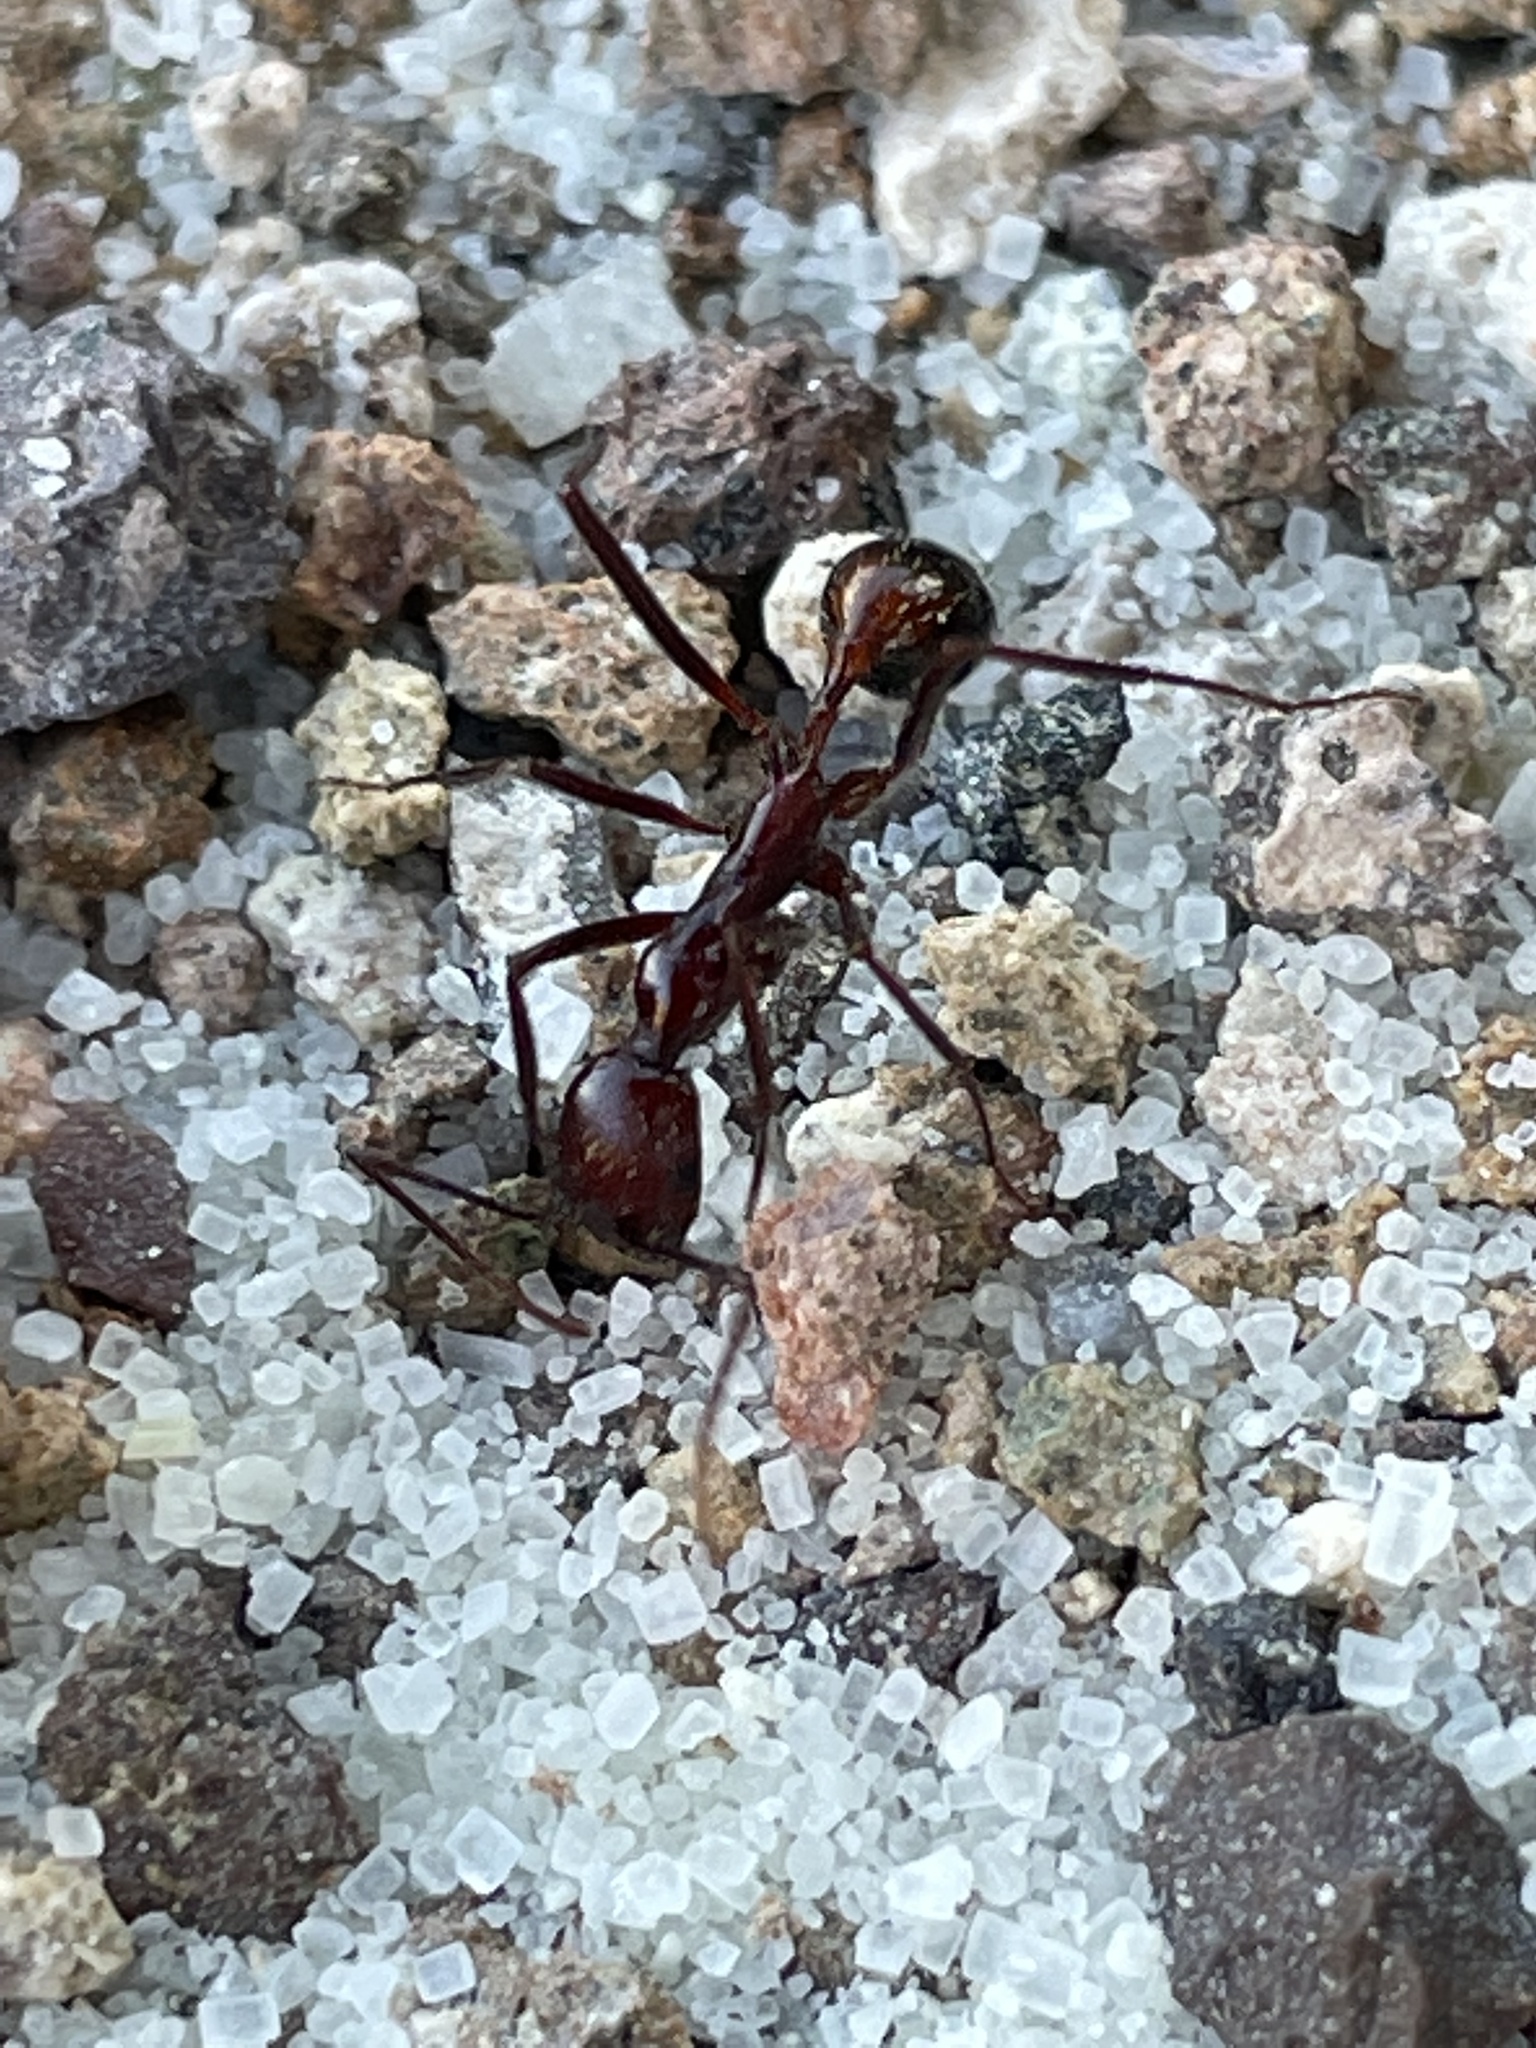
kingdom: Animalia
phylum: Arthropoda
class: Insecta
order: Hymenoptera
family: Formicidae
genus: Novomessor
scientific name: Novomessor cockerelli
